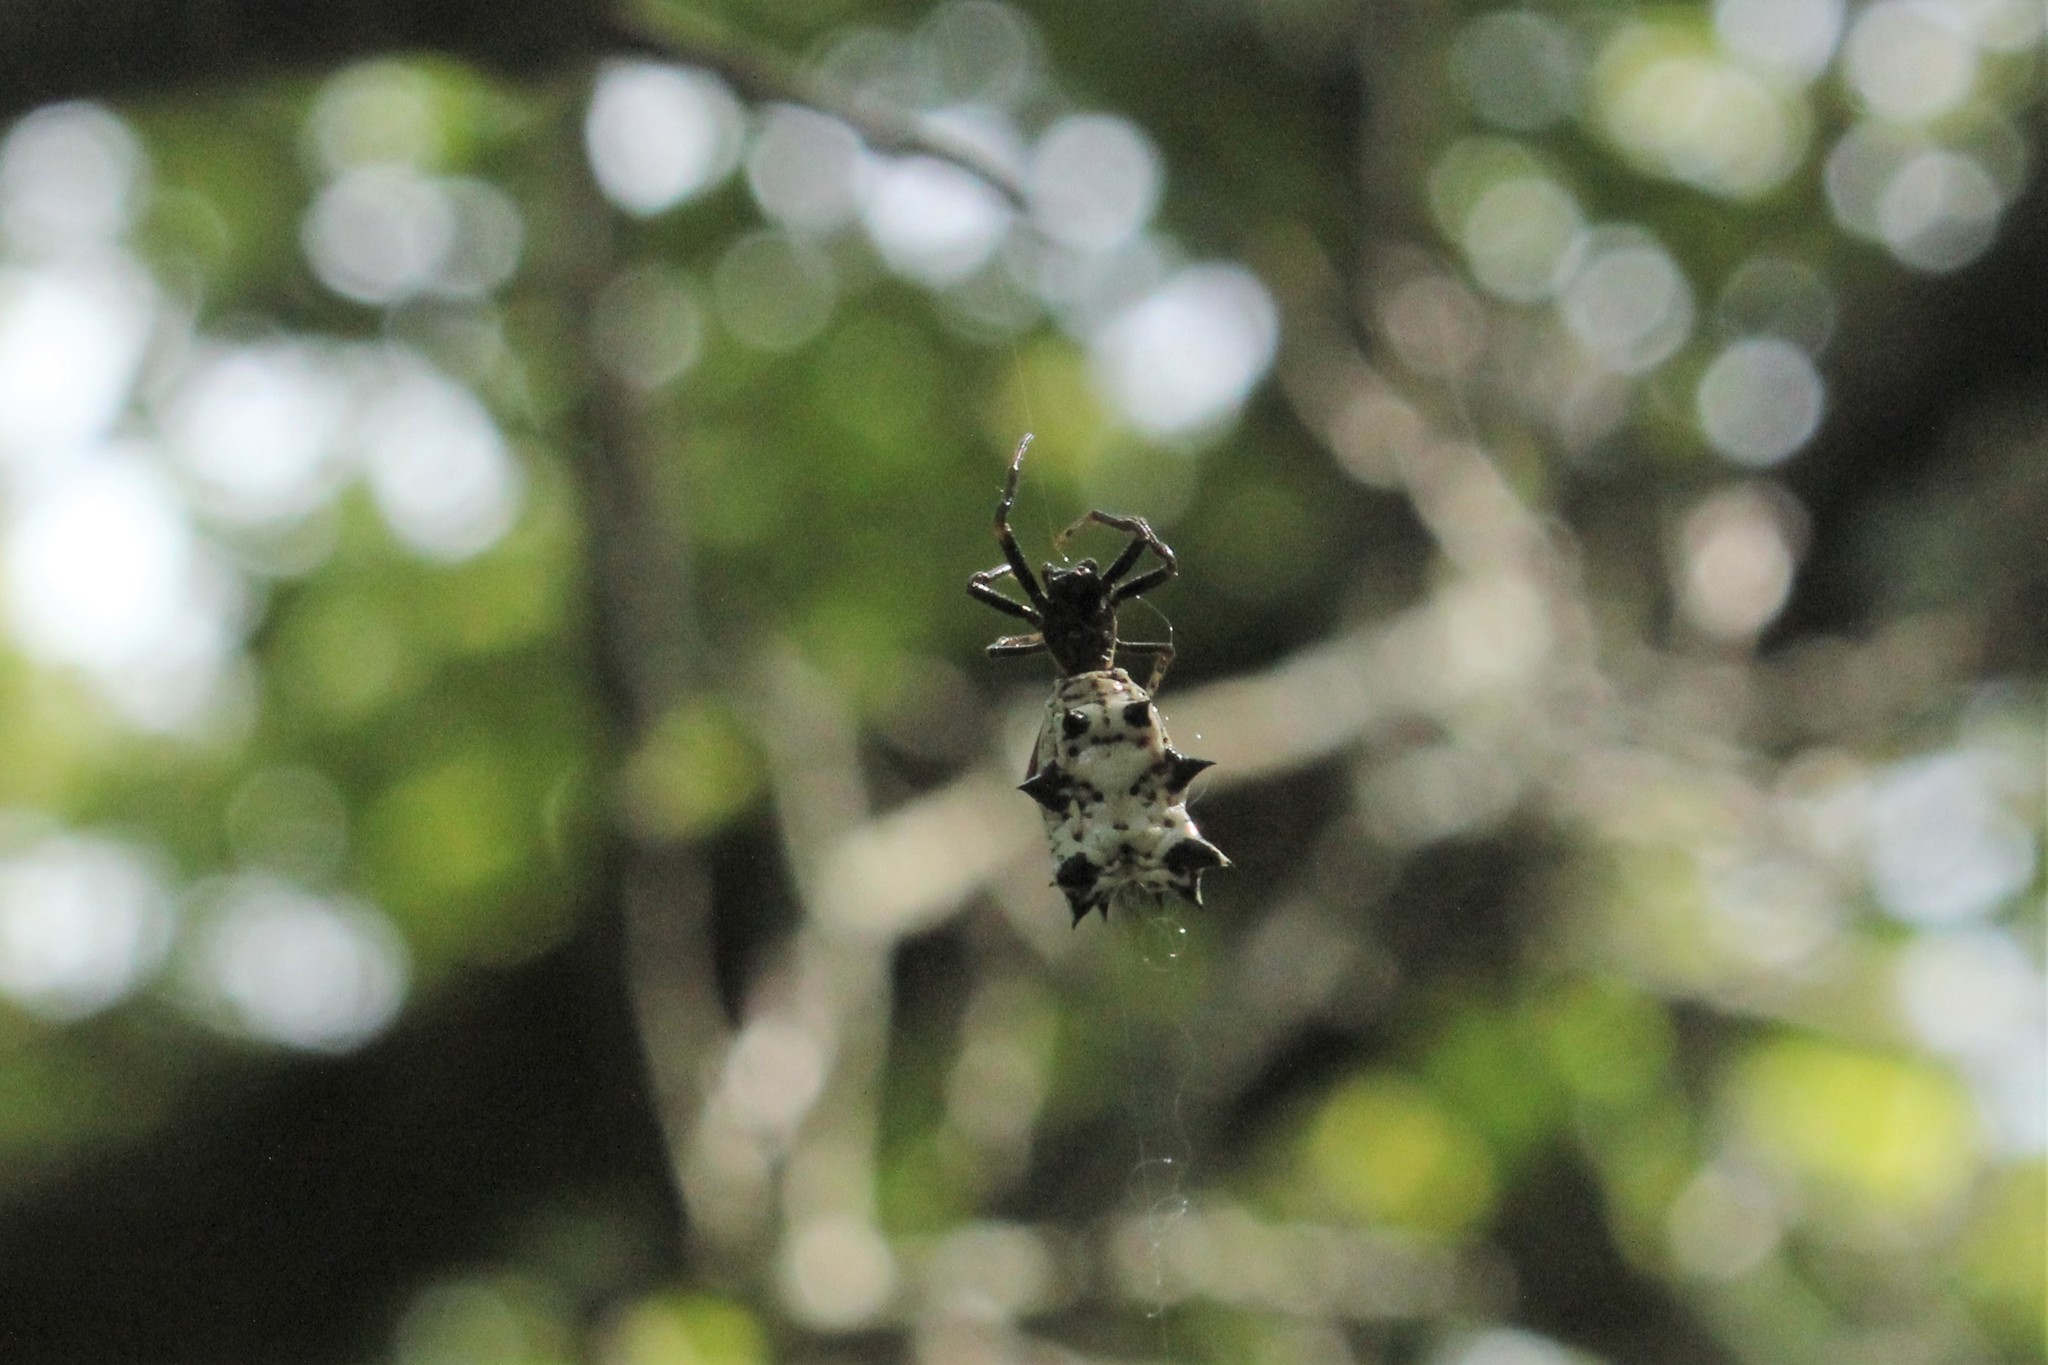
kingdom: Animalia
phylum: Arthropoda
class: Arachnida
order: Araneae
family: Araneidae
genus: Micrathena
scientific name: Micrathena gracilis
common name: Orb weavers
